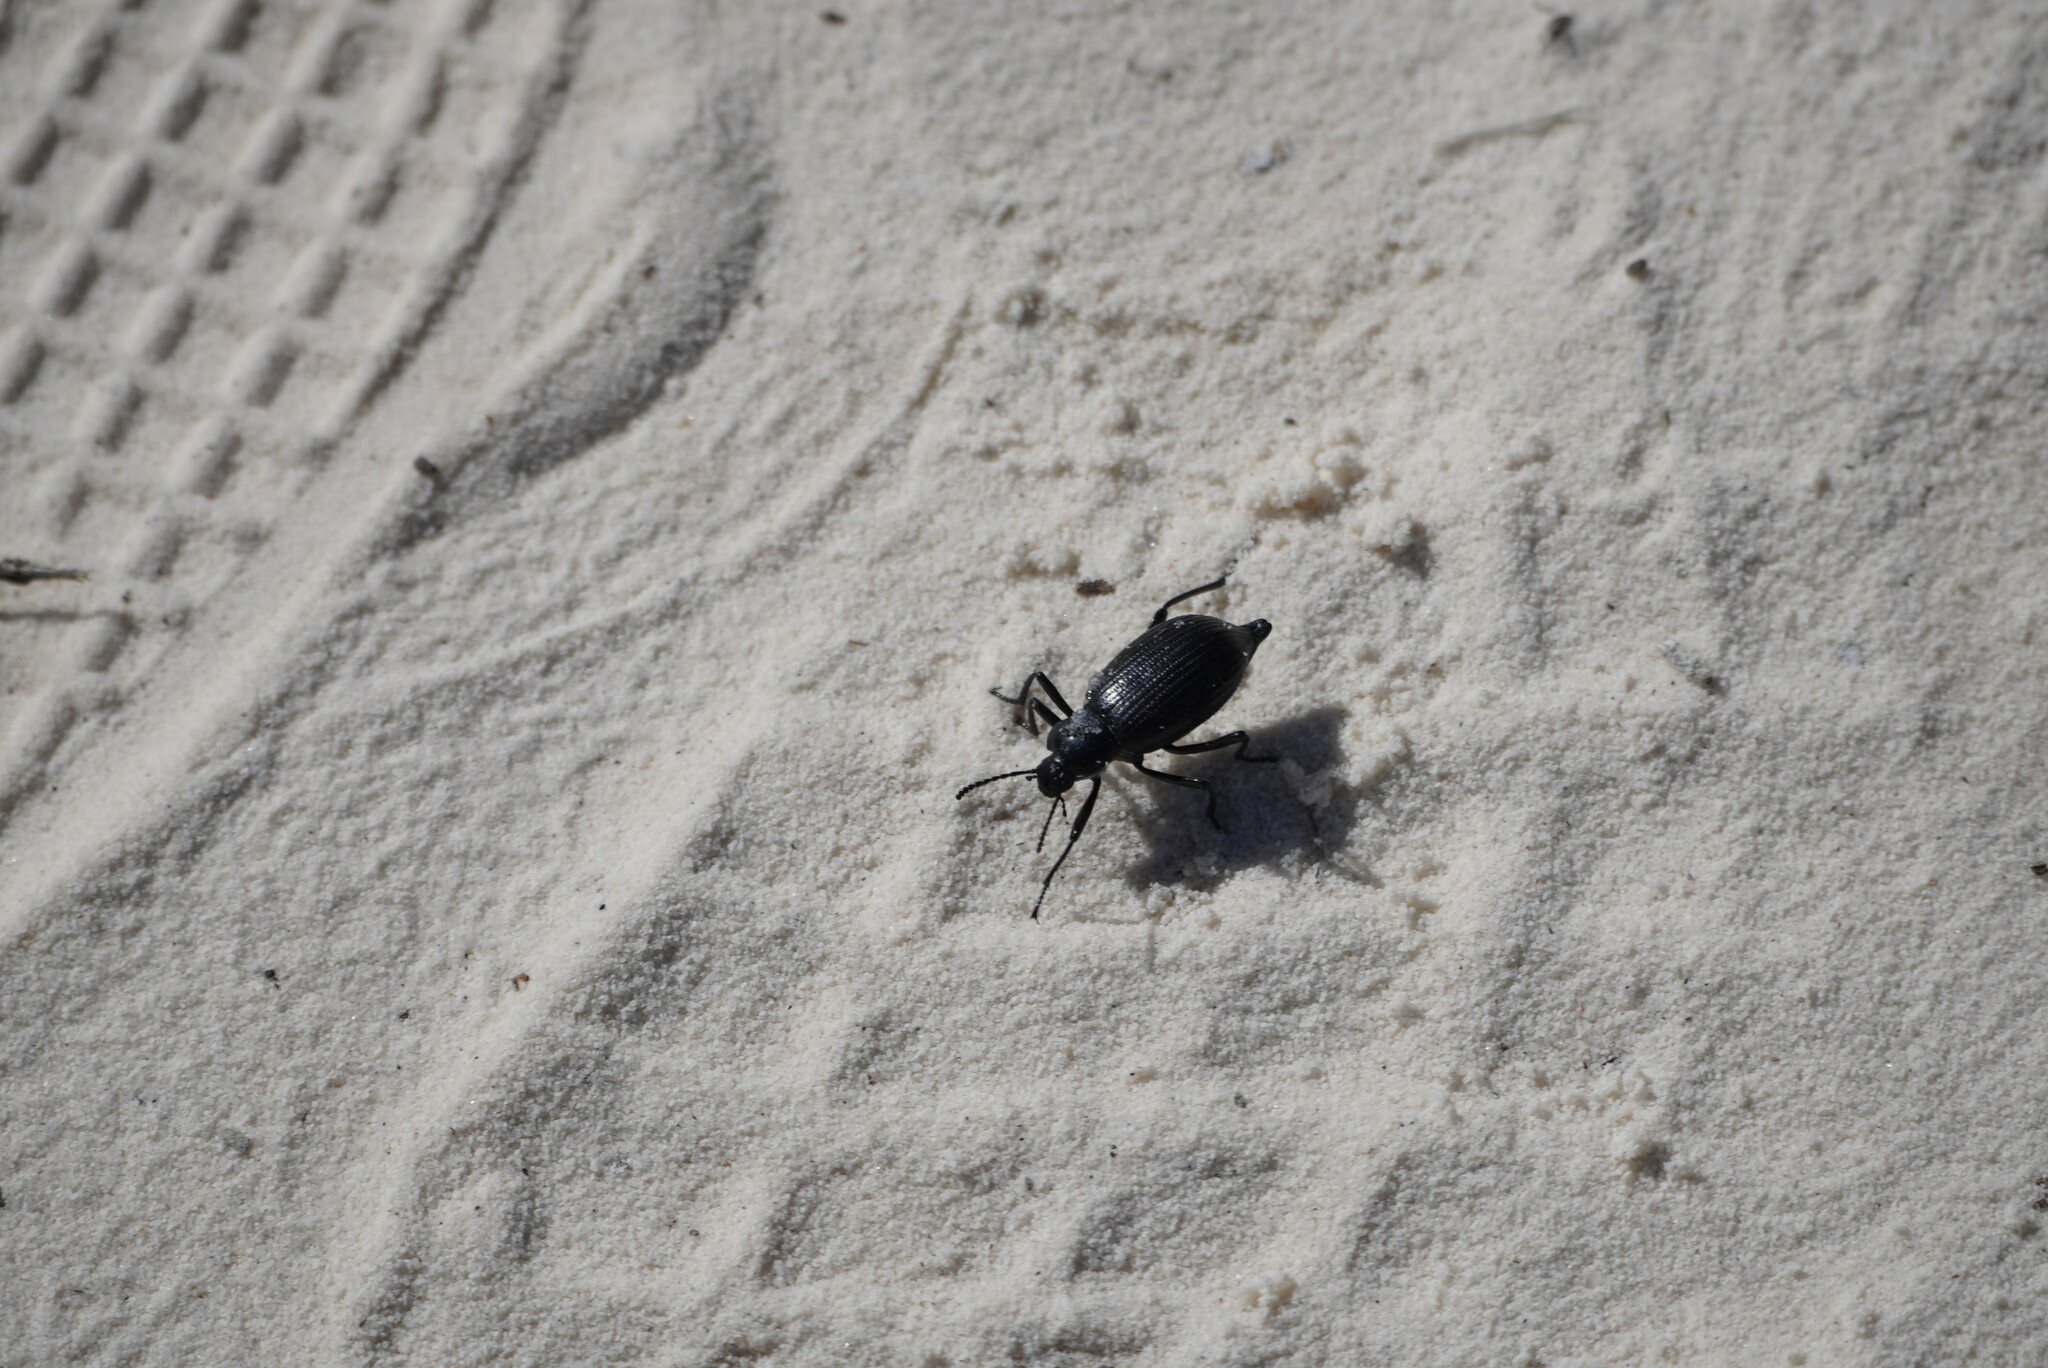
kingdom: Animalia
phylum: Arthropoda
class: Insecta
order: Coleoptera
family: Tenebrionidae
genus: Eleodes
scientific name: Eleodes caudifera
